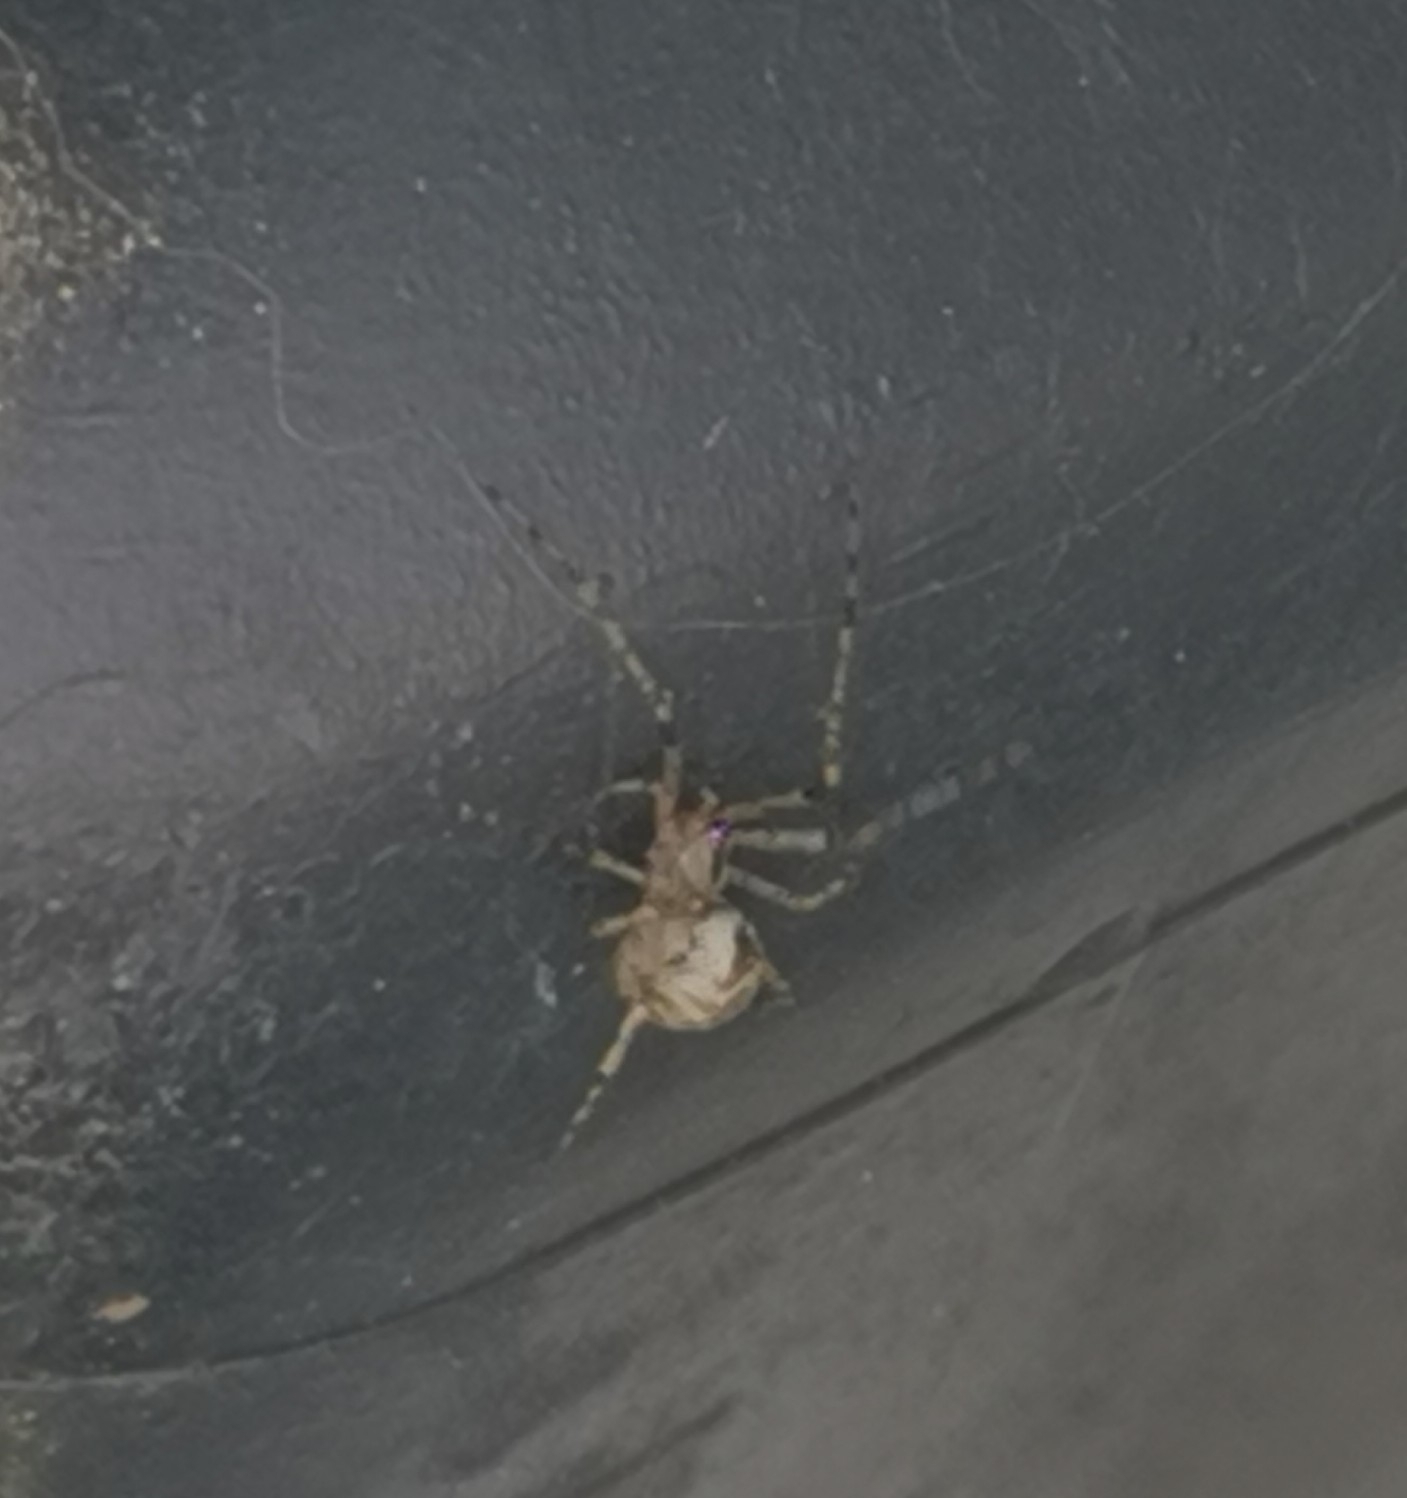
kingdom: Animalia
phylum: Arthropoda
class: Arachnida
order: Araneae
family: Theridiidae
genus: Platnickina
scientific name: Platnickina tincta
